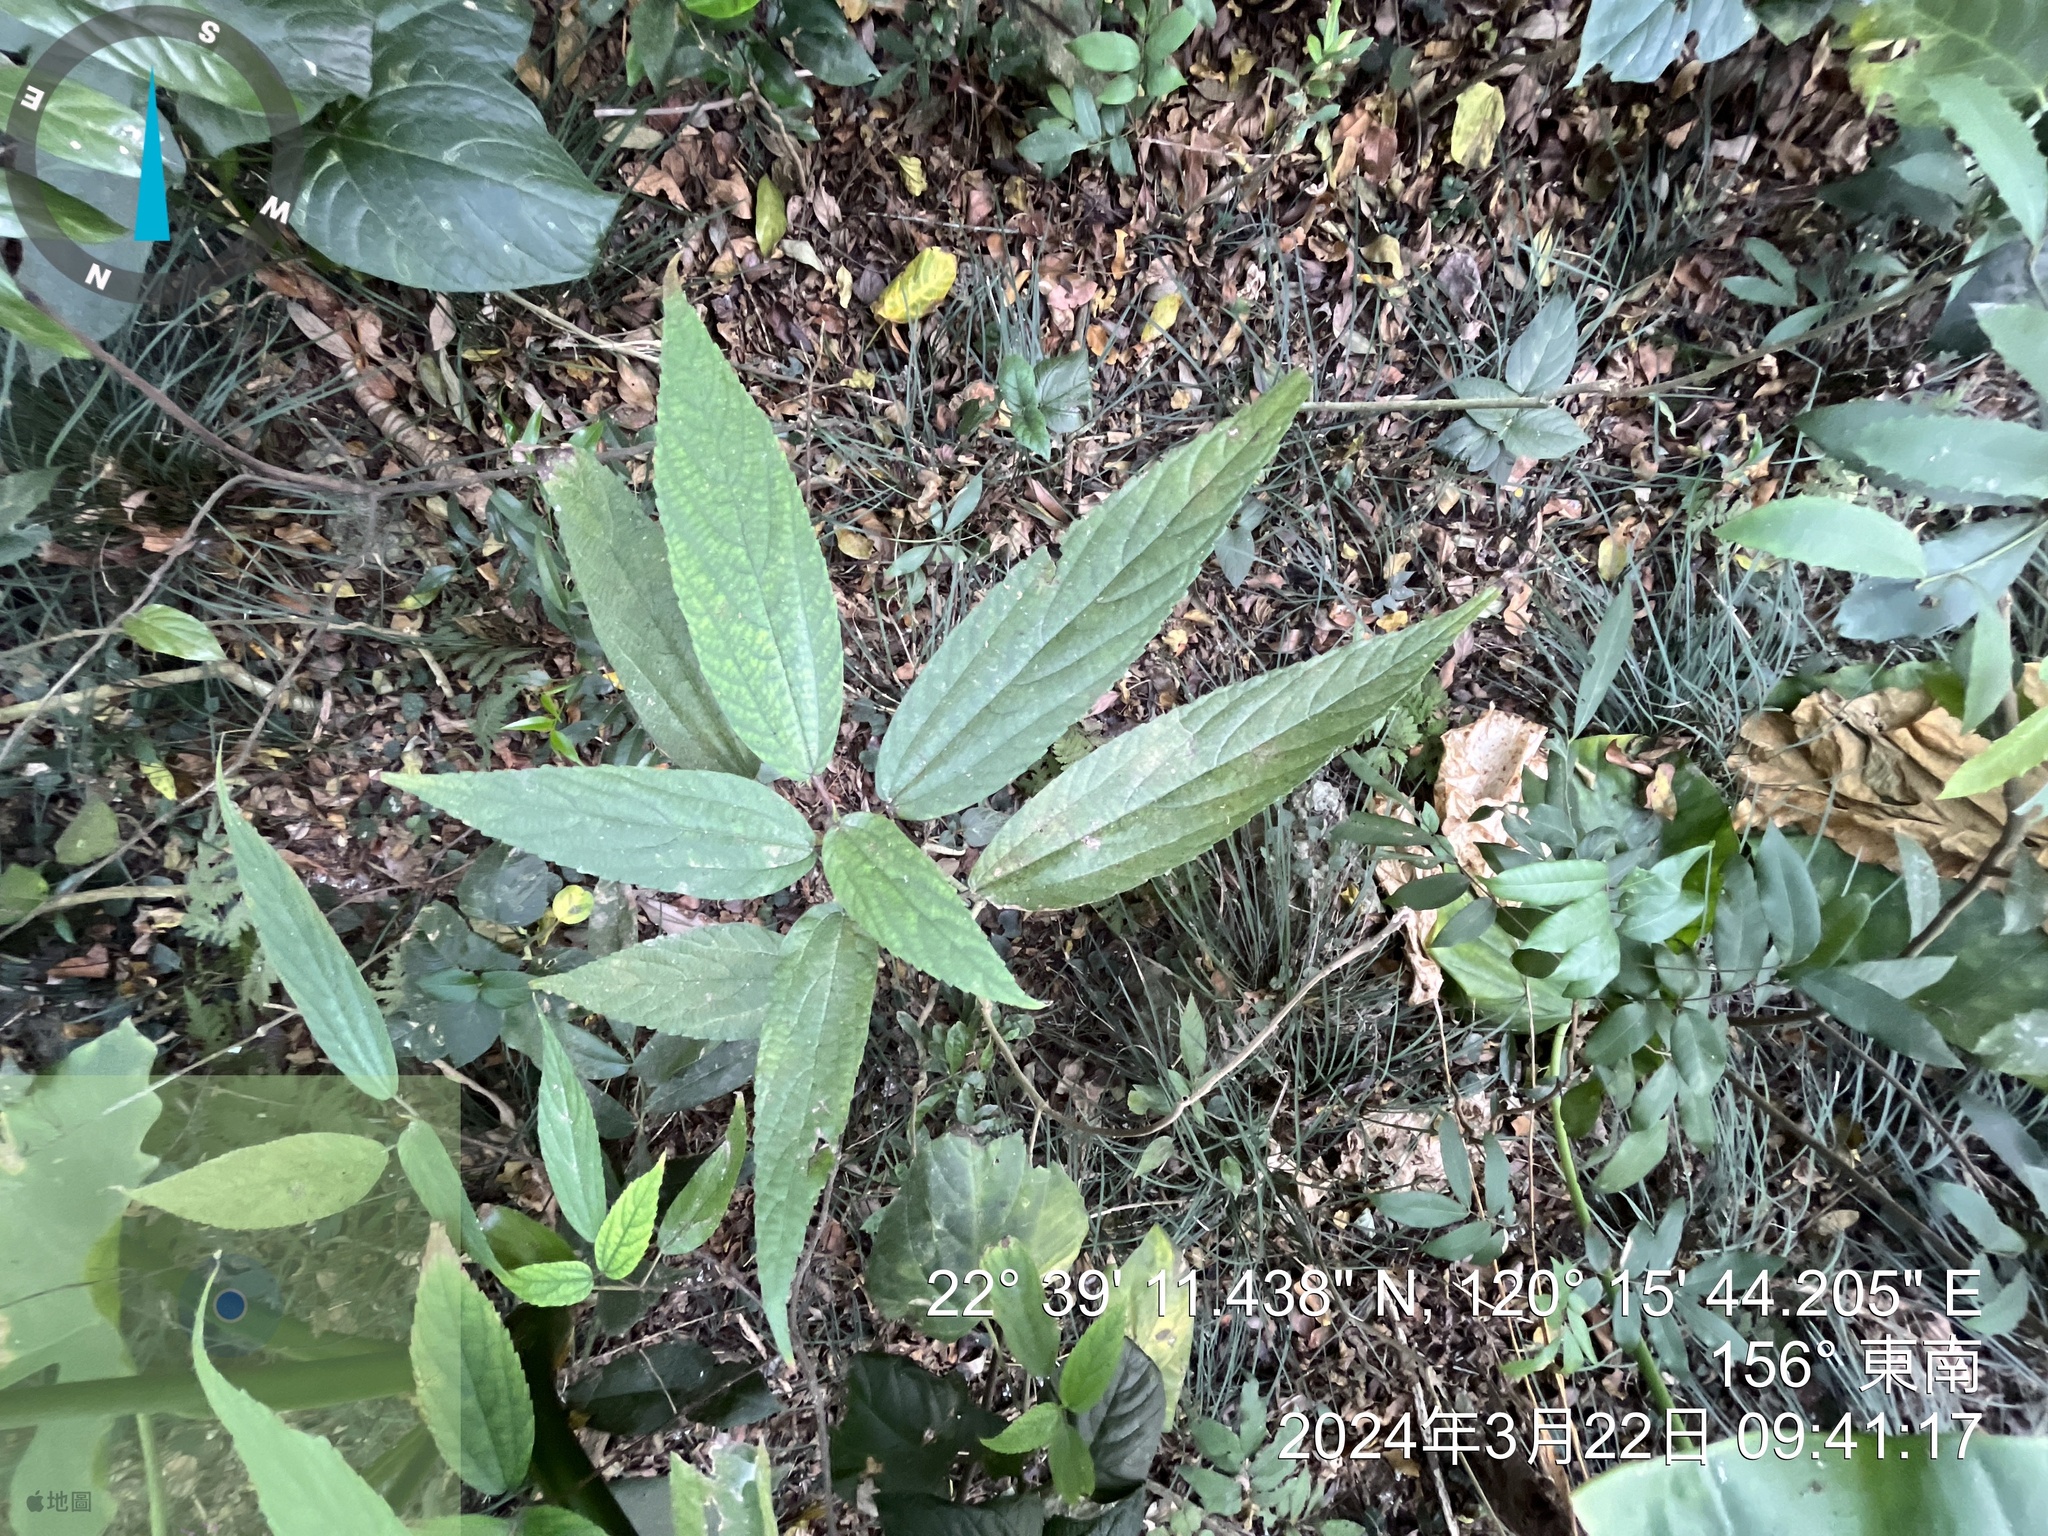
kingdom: Plantae
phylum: Tracheophyta
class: Magnoliopsida
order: Rosales
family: Urticaceae
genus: Boehmeria
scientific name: Boehmeria zollingeriana
